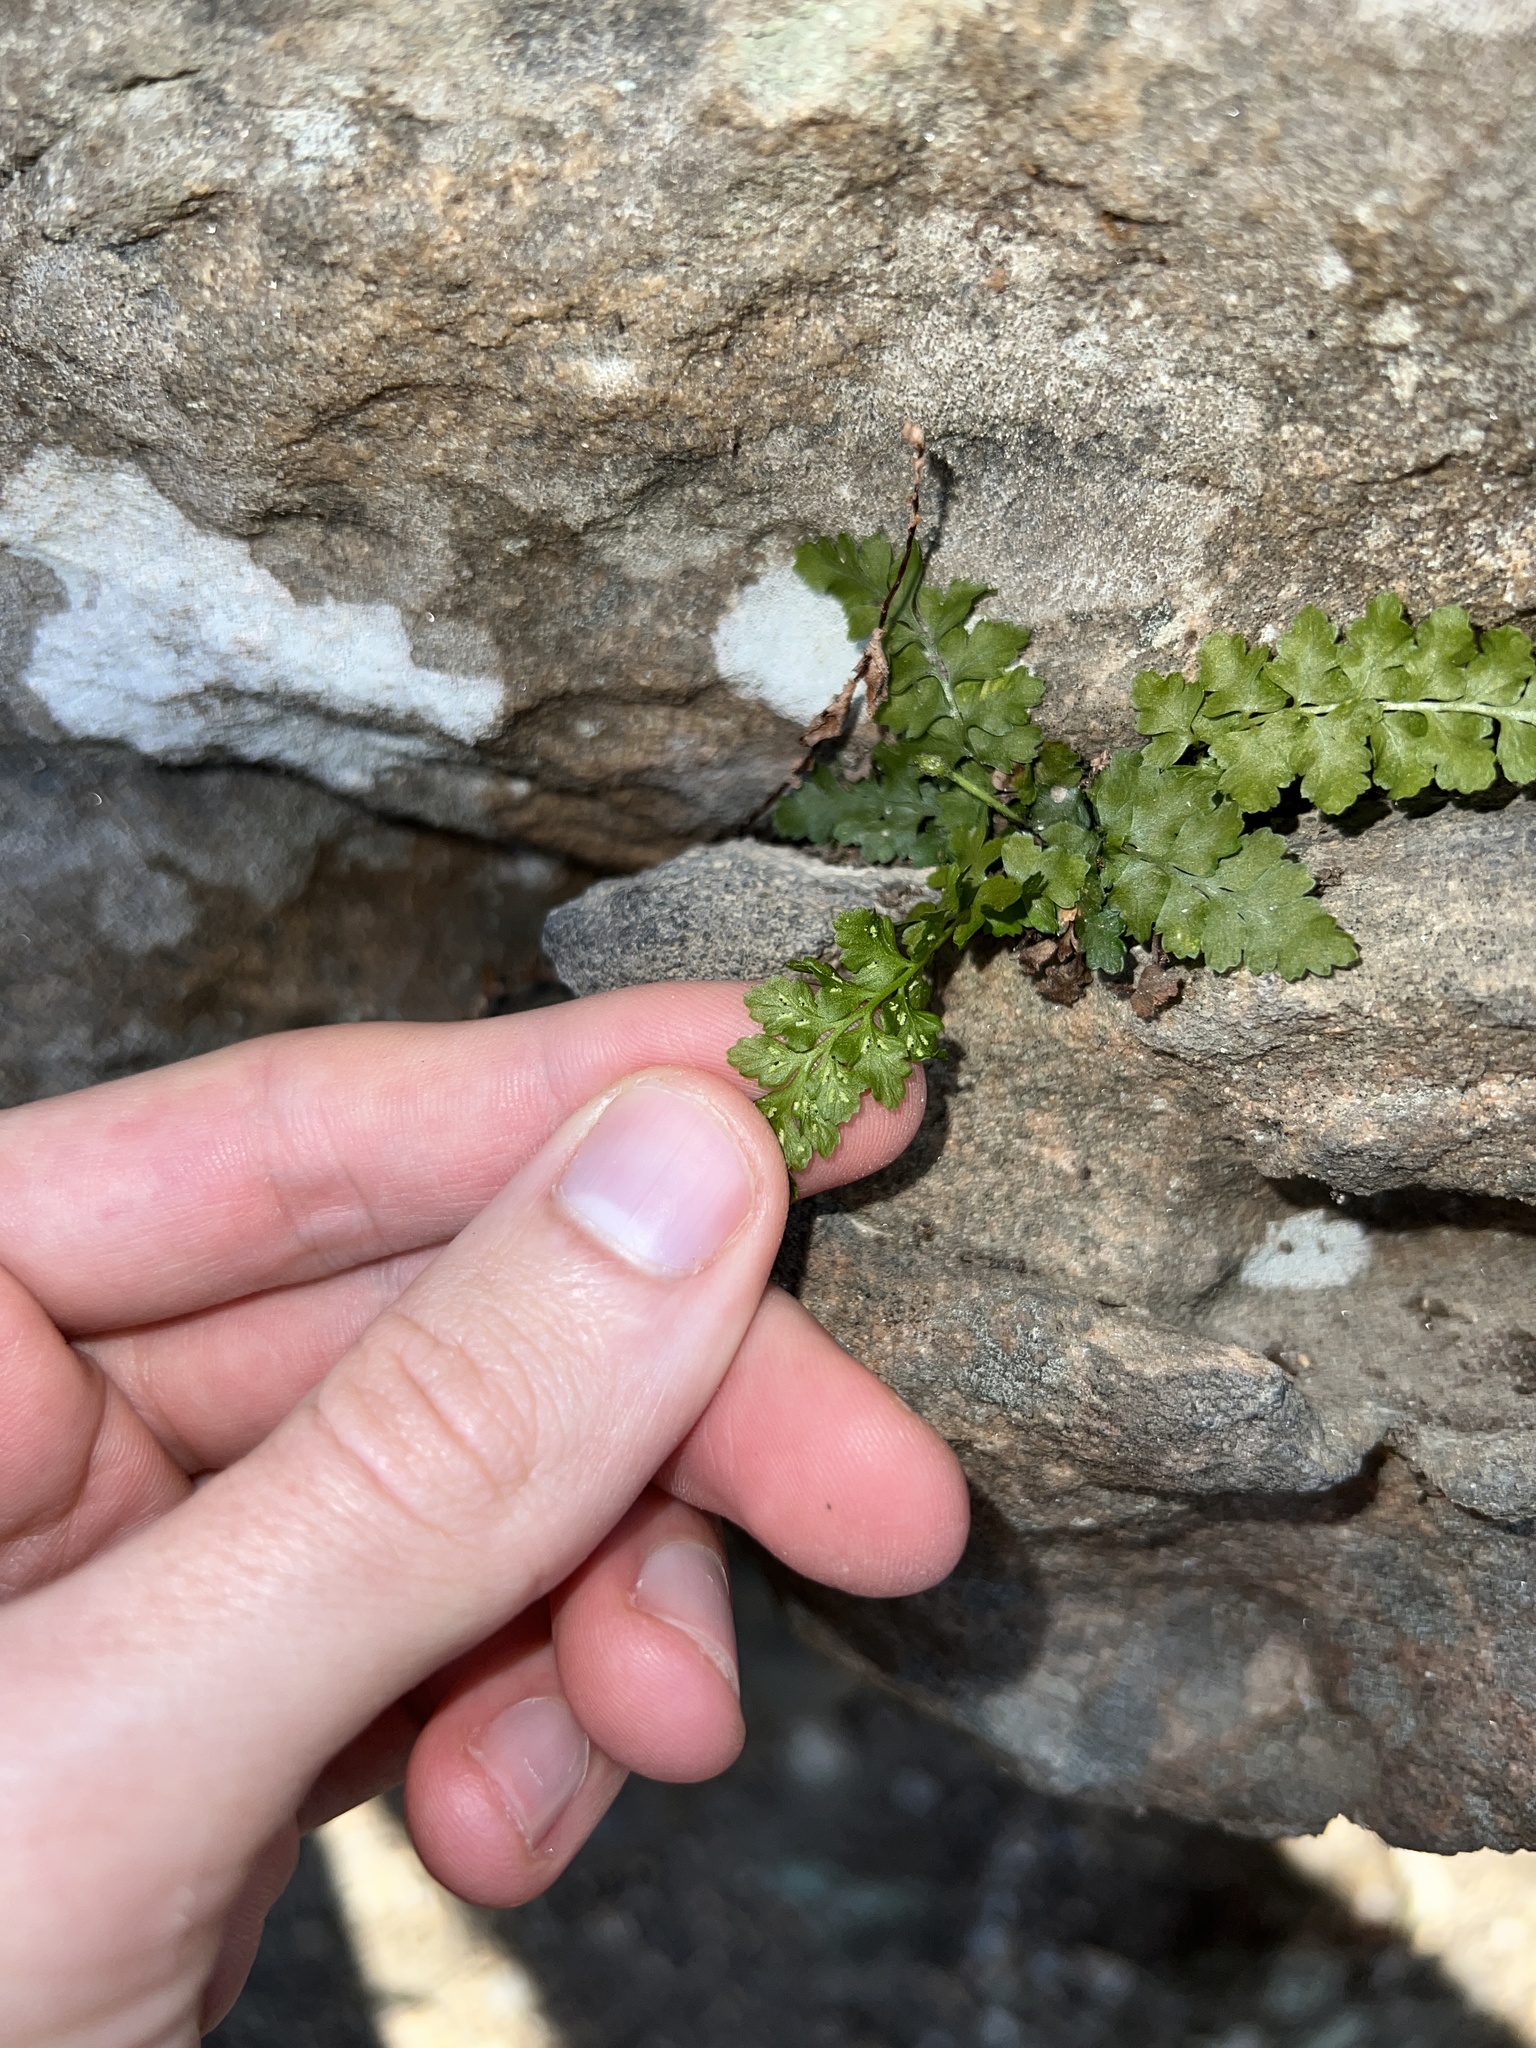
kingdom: Plantae
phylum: Tracheophyta
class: Polypodiopsida
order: Polypodiales
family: Aspleniaceae
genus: Asplenium
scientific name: Asplenium bradleyi
